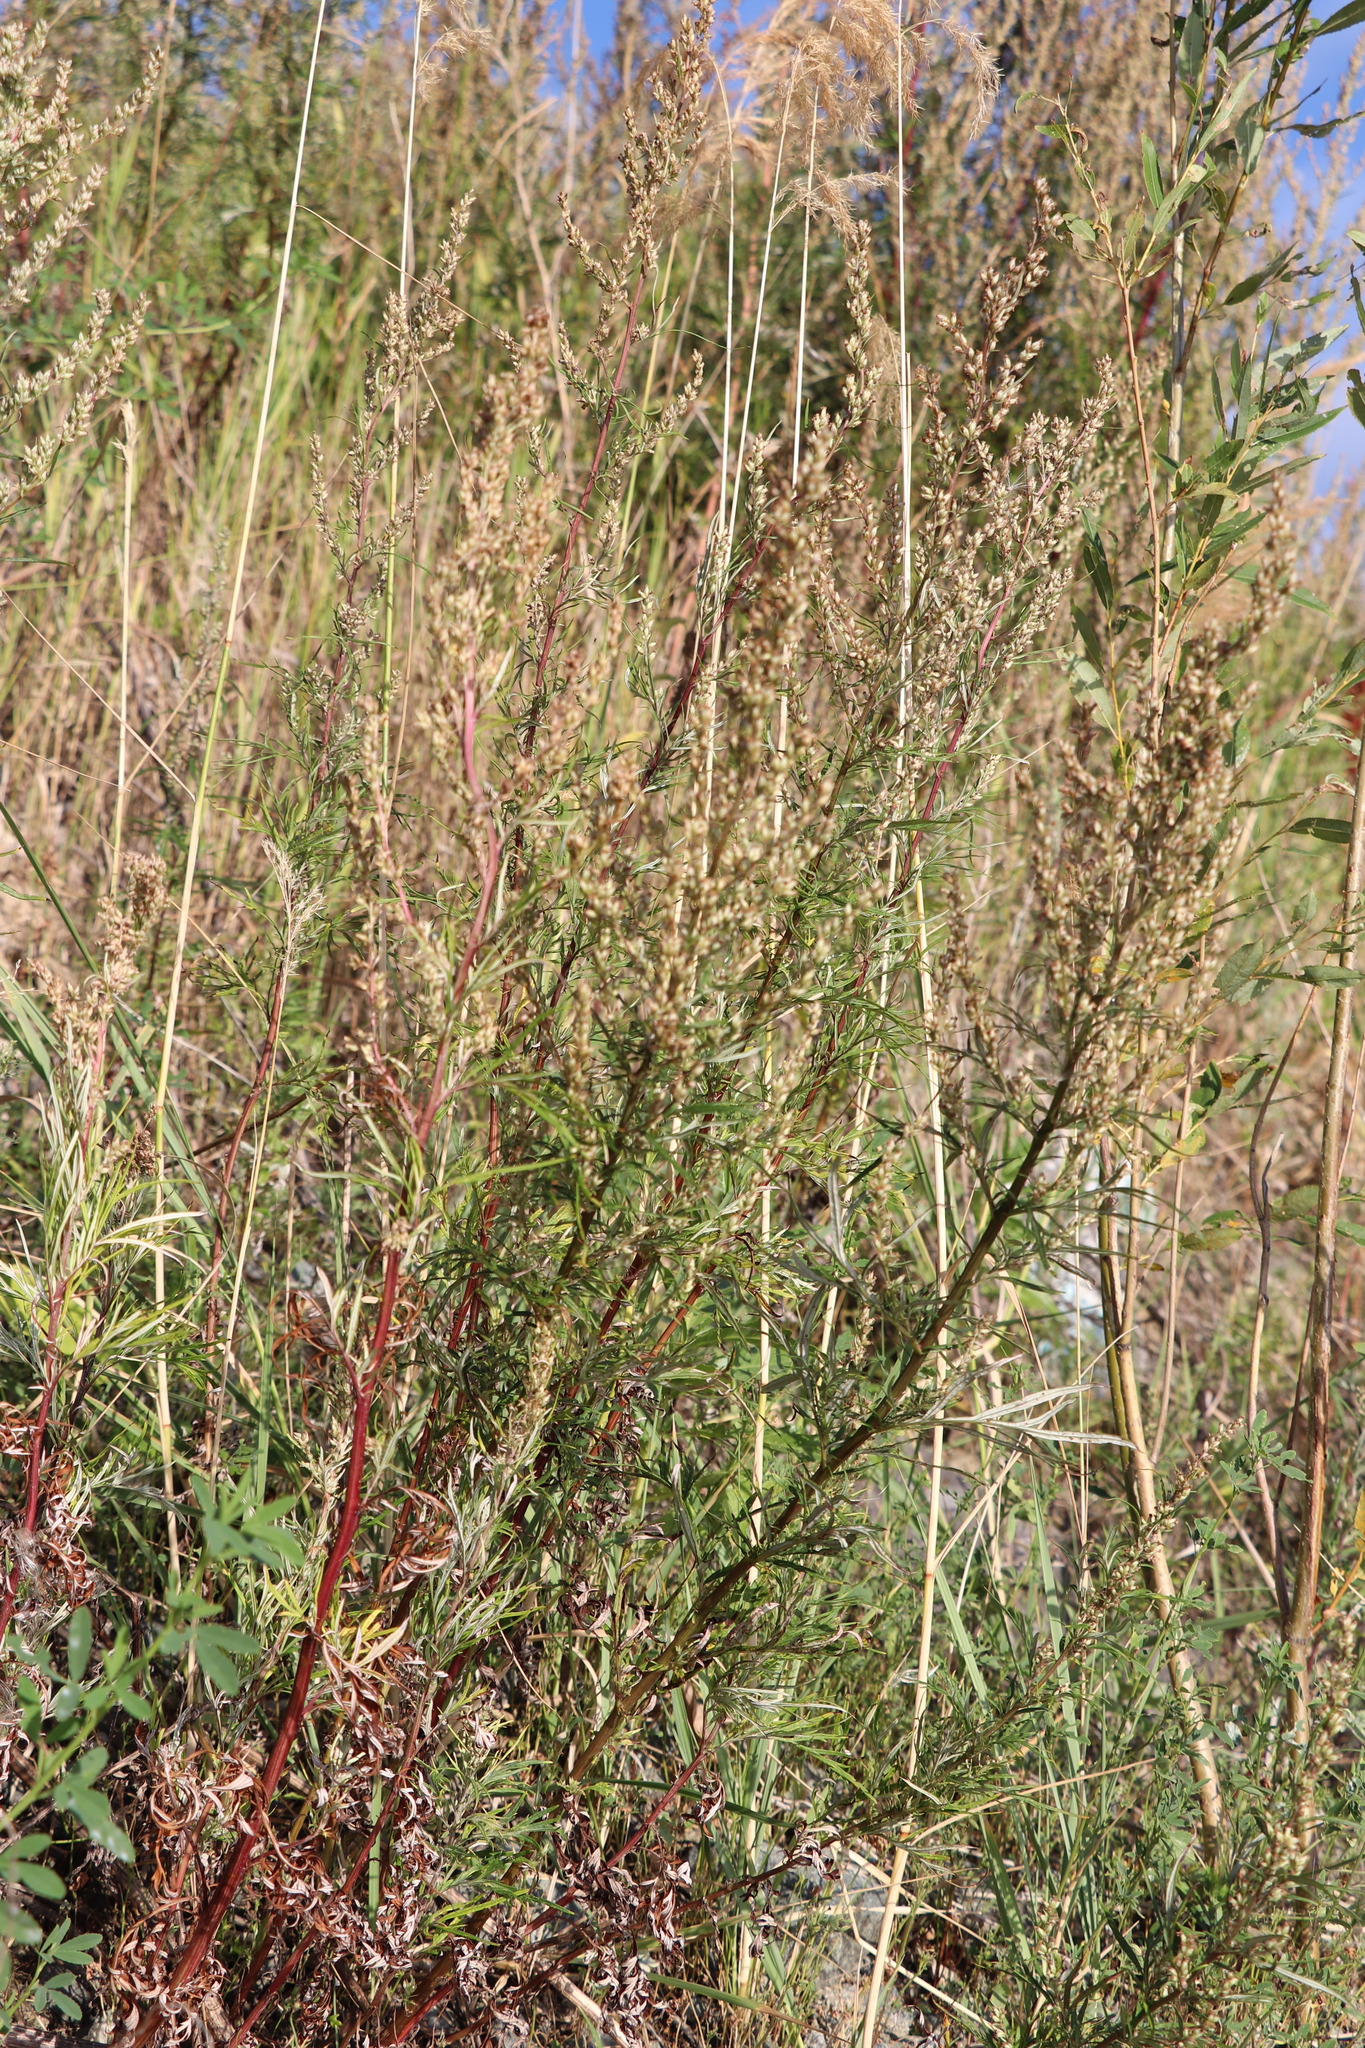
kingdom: Plantae
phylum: Tracheophyta
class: Magnoliopsida
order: Asterales
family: Asteraceae
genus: Artemisia
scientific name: Artemisia vulgaris
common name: Mugwort
